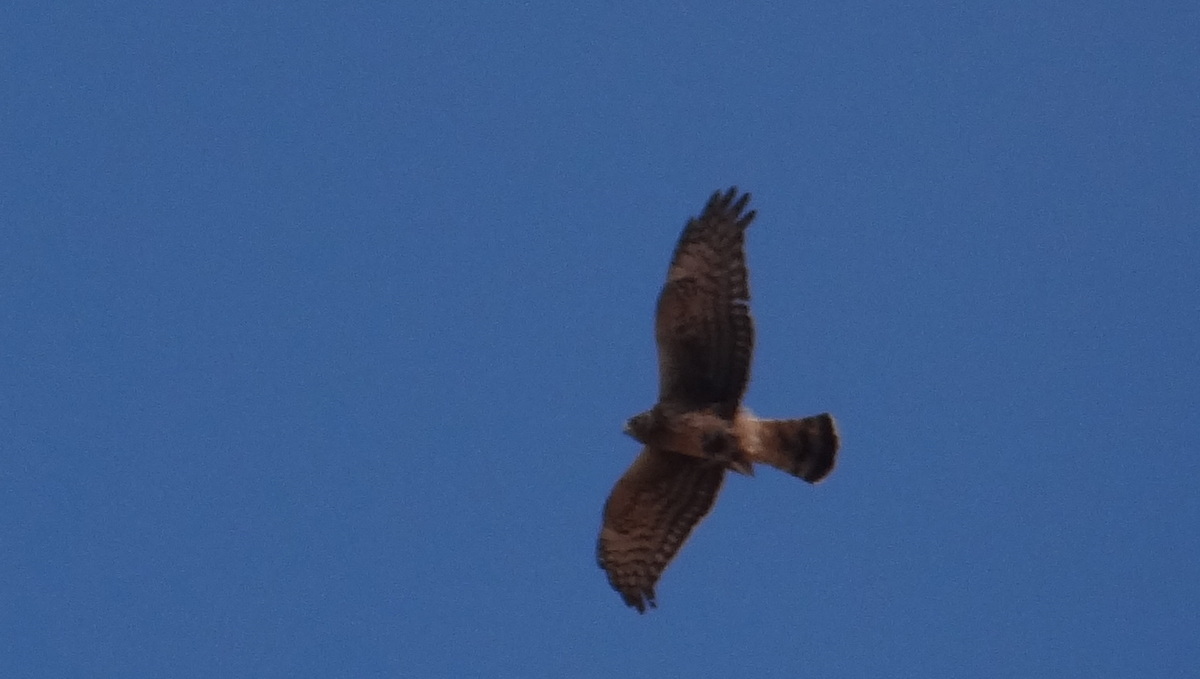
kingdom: Animalia
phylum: Chordata
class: Aves
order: Accipitriformes
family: Accipitridae
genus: Circus
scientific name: Circus cinereus
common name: Cinereous harrier
